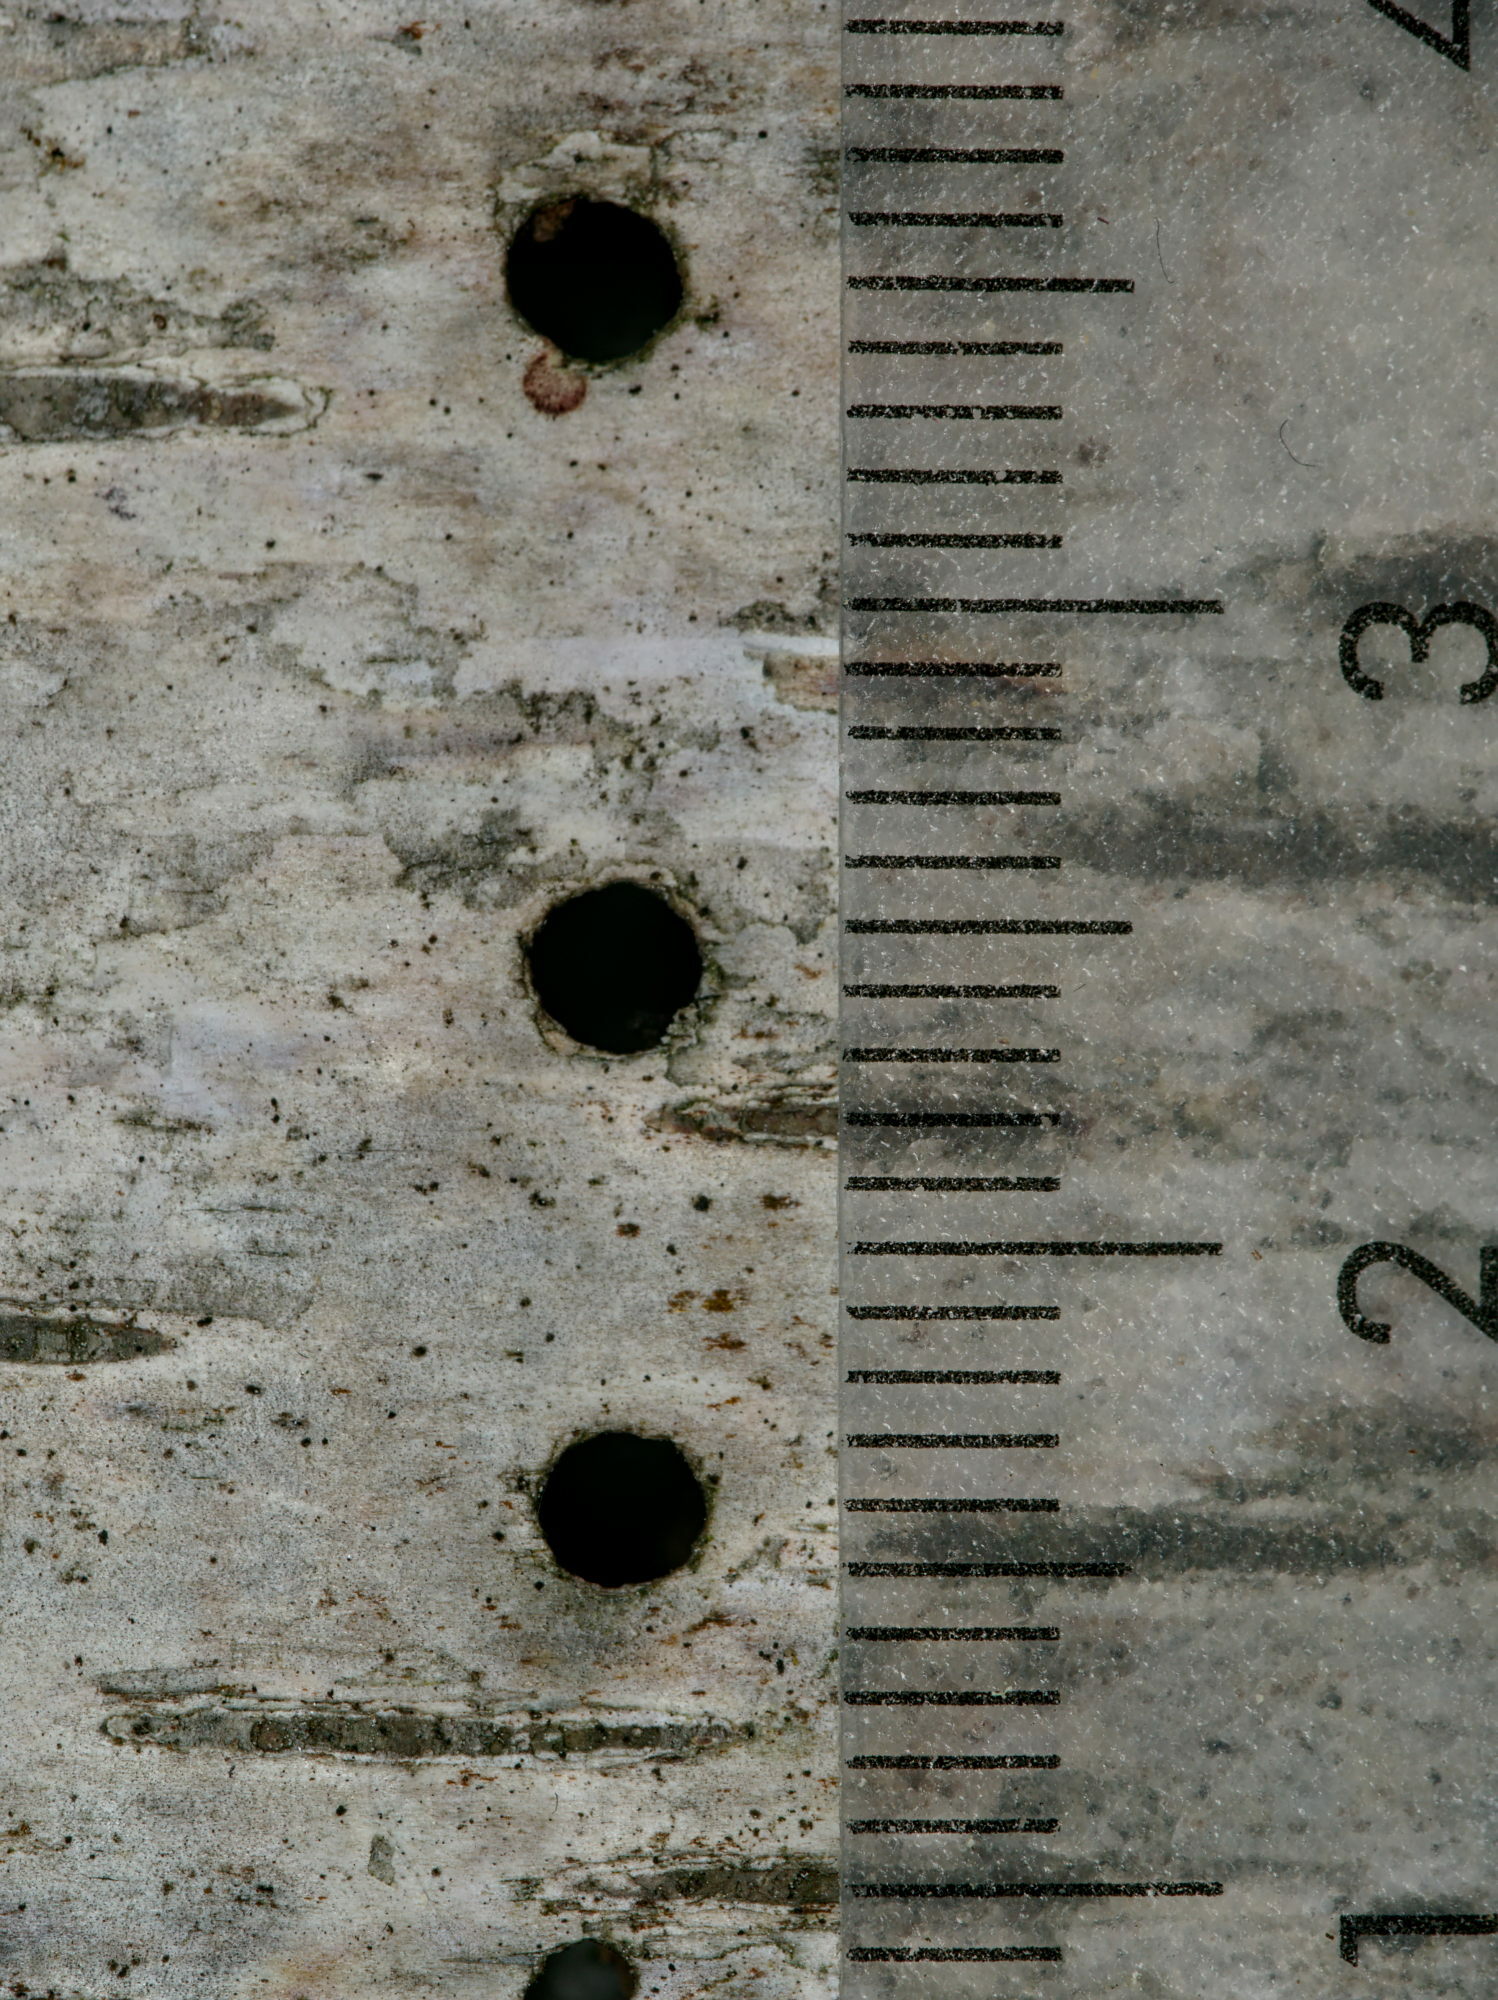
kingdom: Animalia
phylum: Arthropoda
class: Insecta
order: Coleoptera
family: Curculionidae
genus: Scolytus
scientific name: Scolytus ratzeburgii
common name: Birch bark beetle
